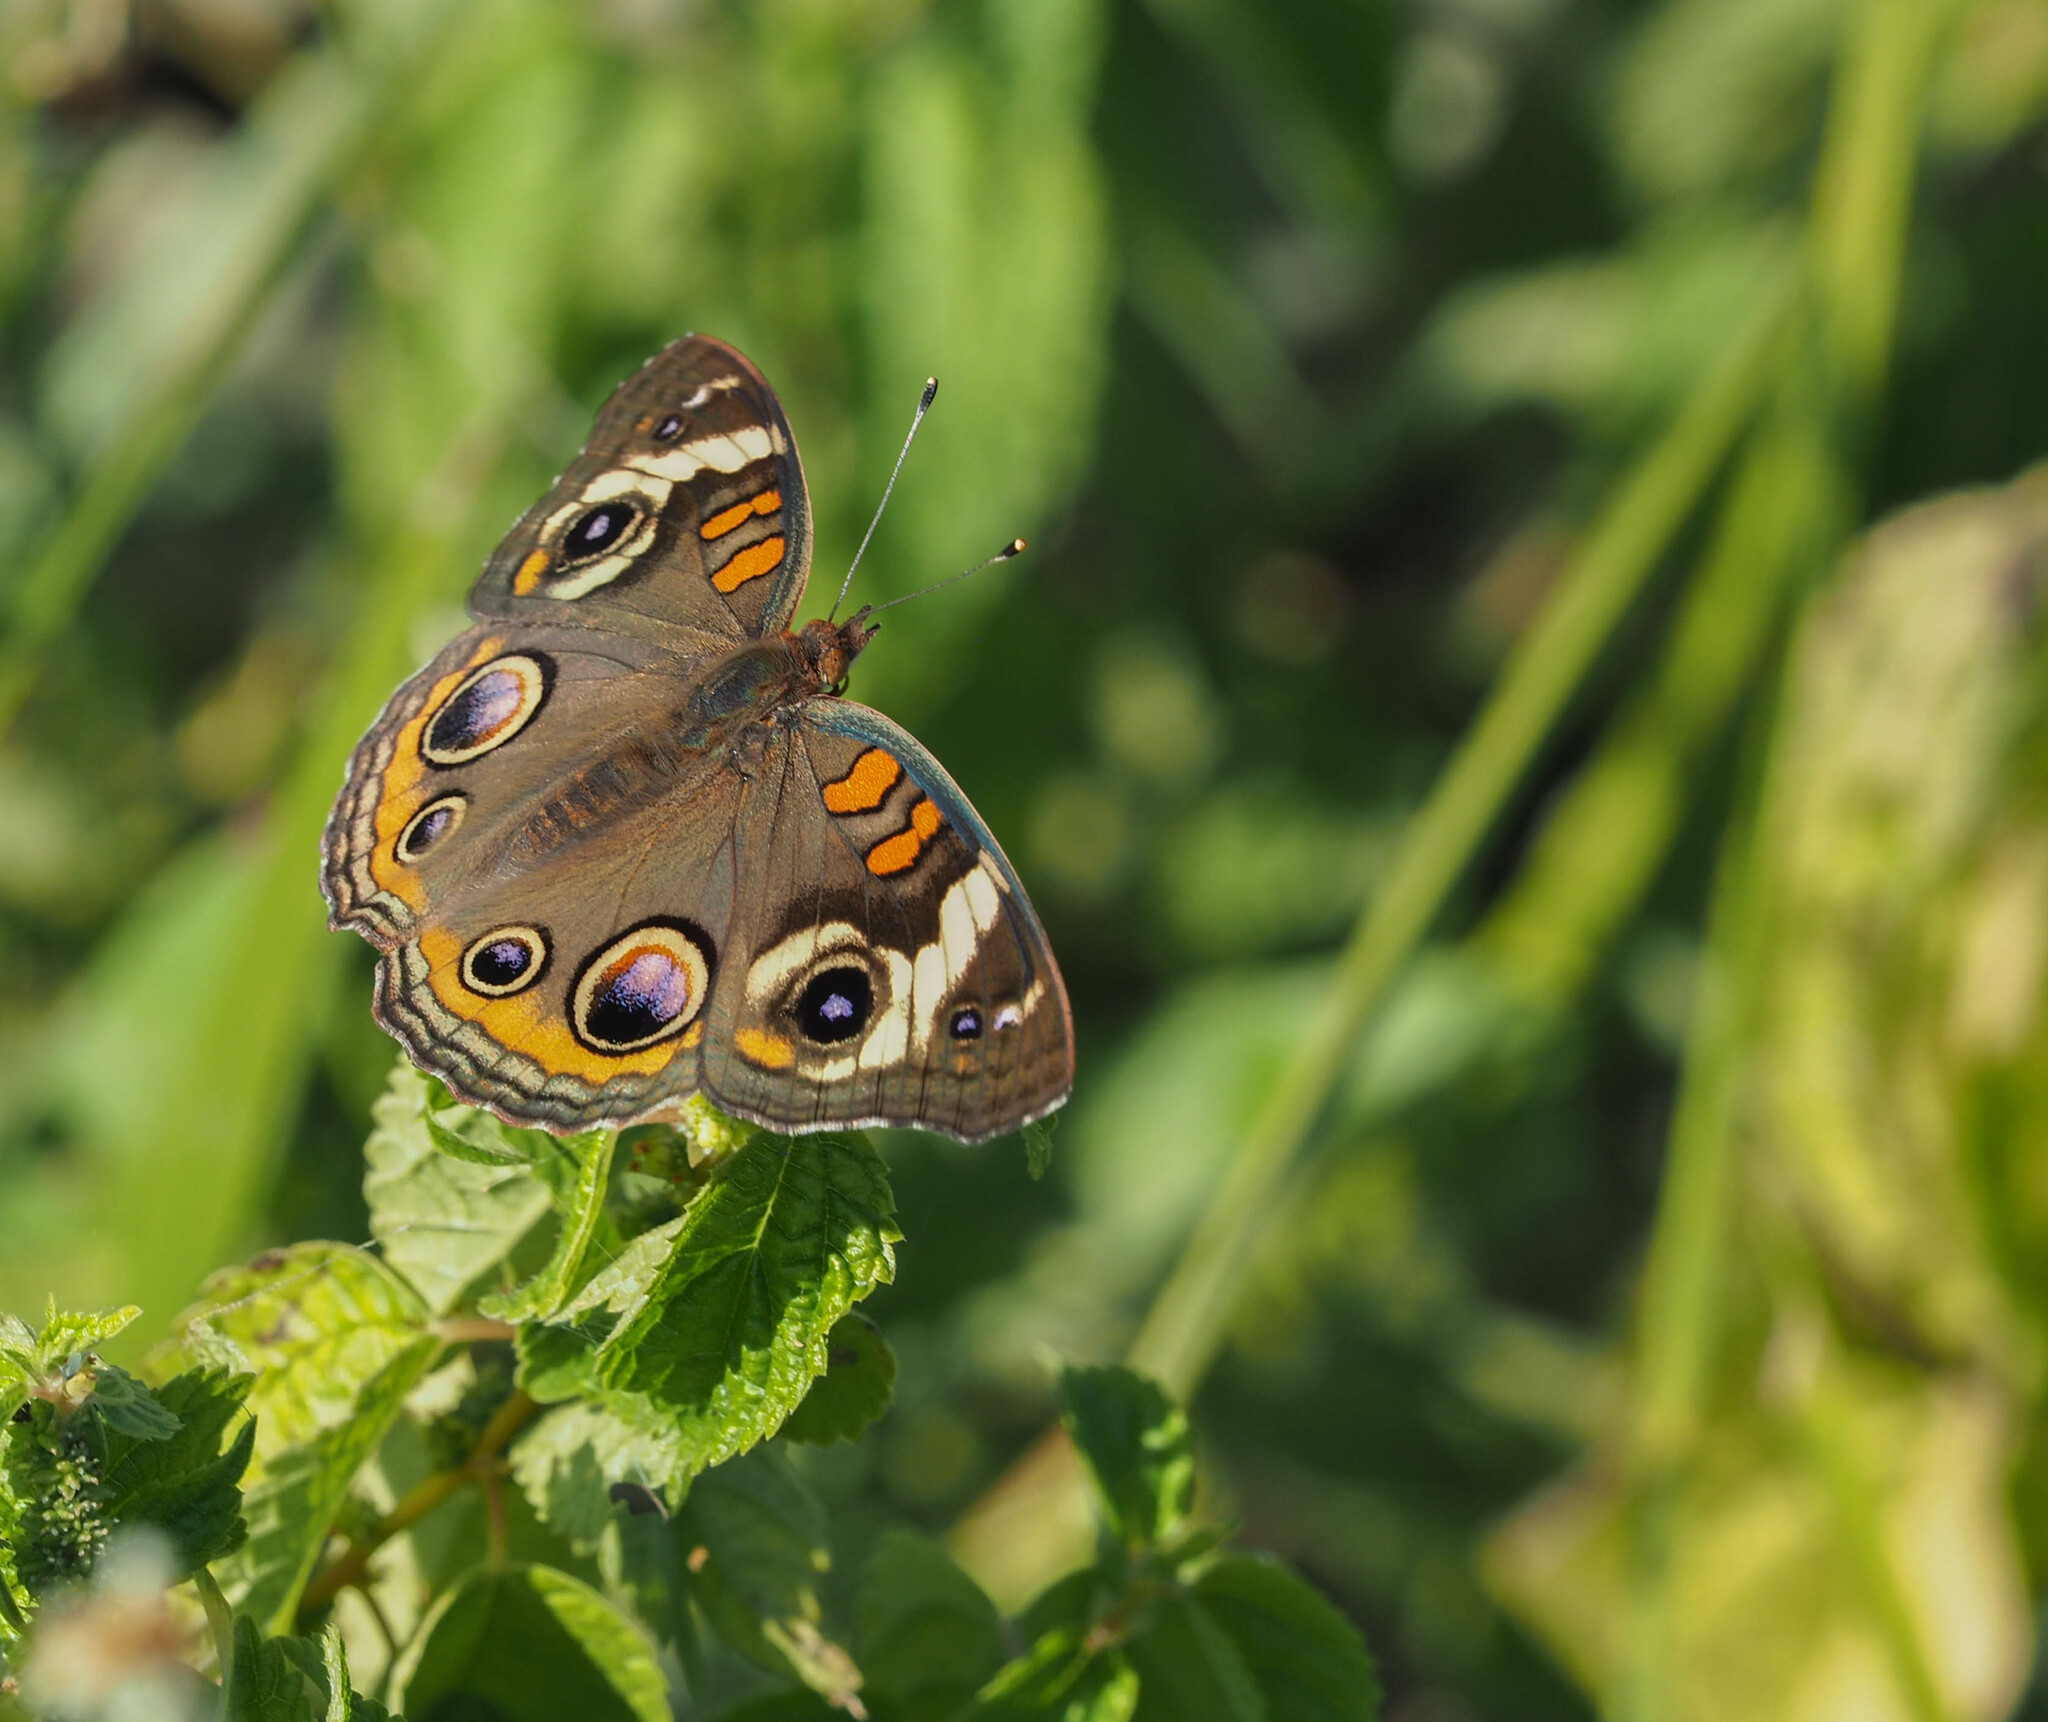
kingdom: Animalia
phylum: Arthropoda
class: Insecta
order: Lepidoptera
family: Nymphalidae
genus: Junonia
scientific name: Junonia coenia
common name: Common buckeye
